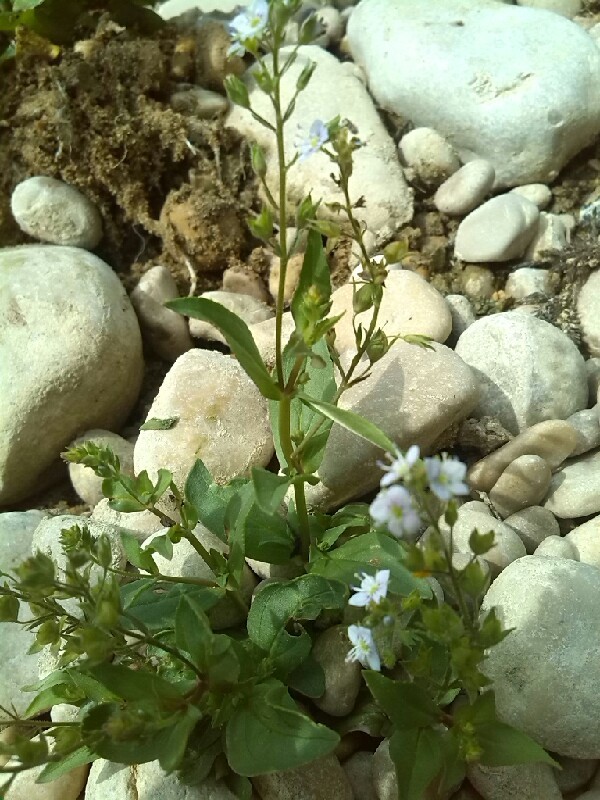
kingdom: Plantae
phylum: Tracheophyta
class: Magnoliopsida
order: Lamiales
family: Plantaginaceae
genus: Veronica
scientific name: Veronica anagallis-aquatica
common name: Water speedwell
